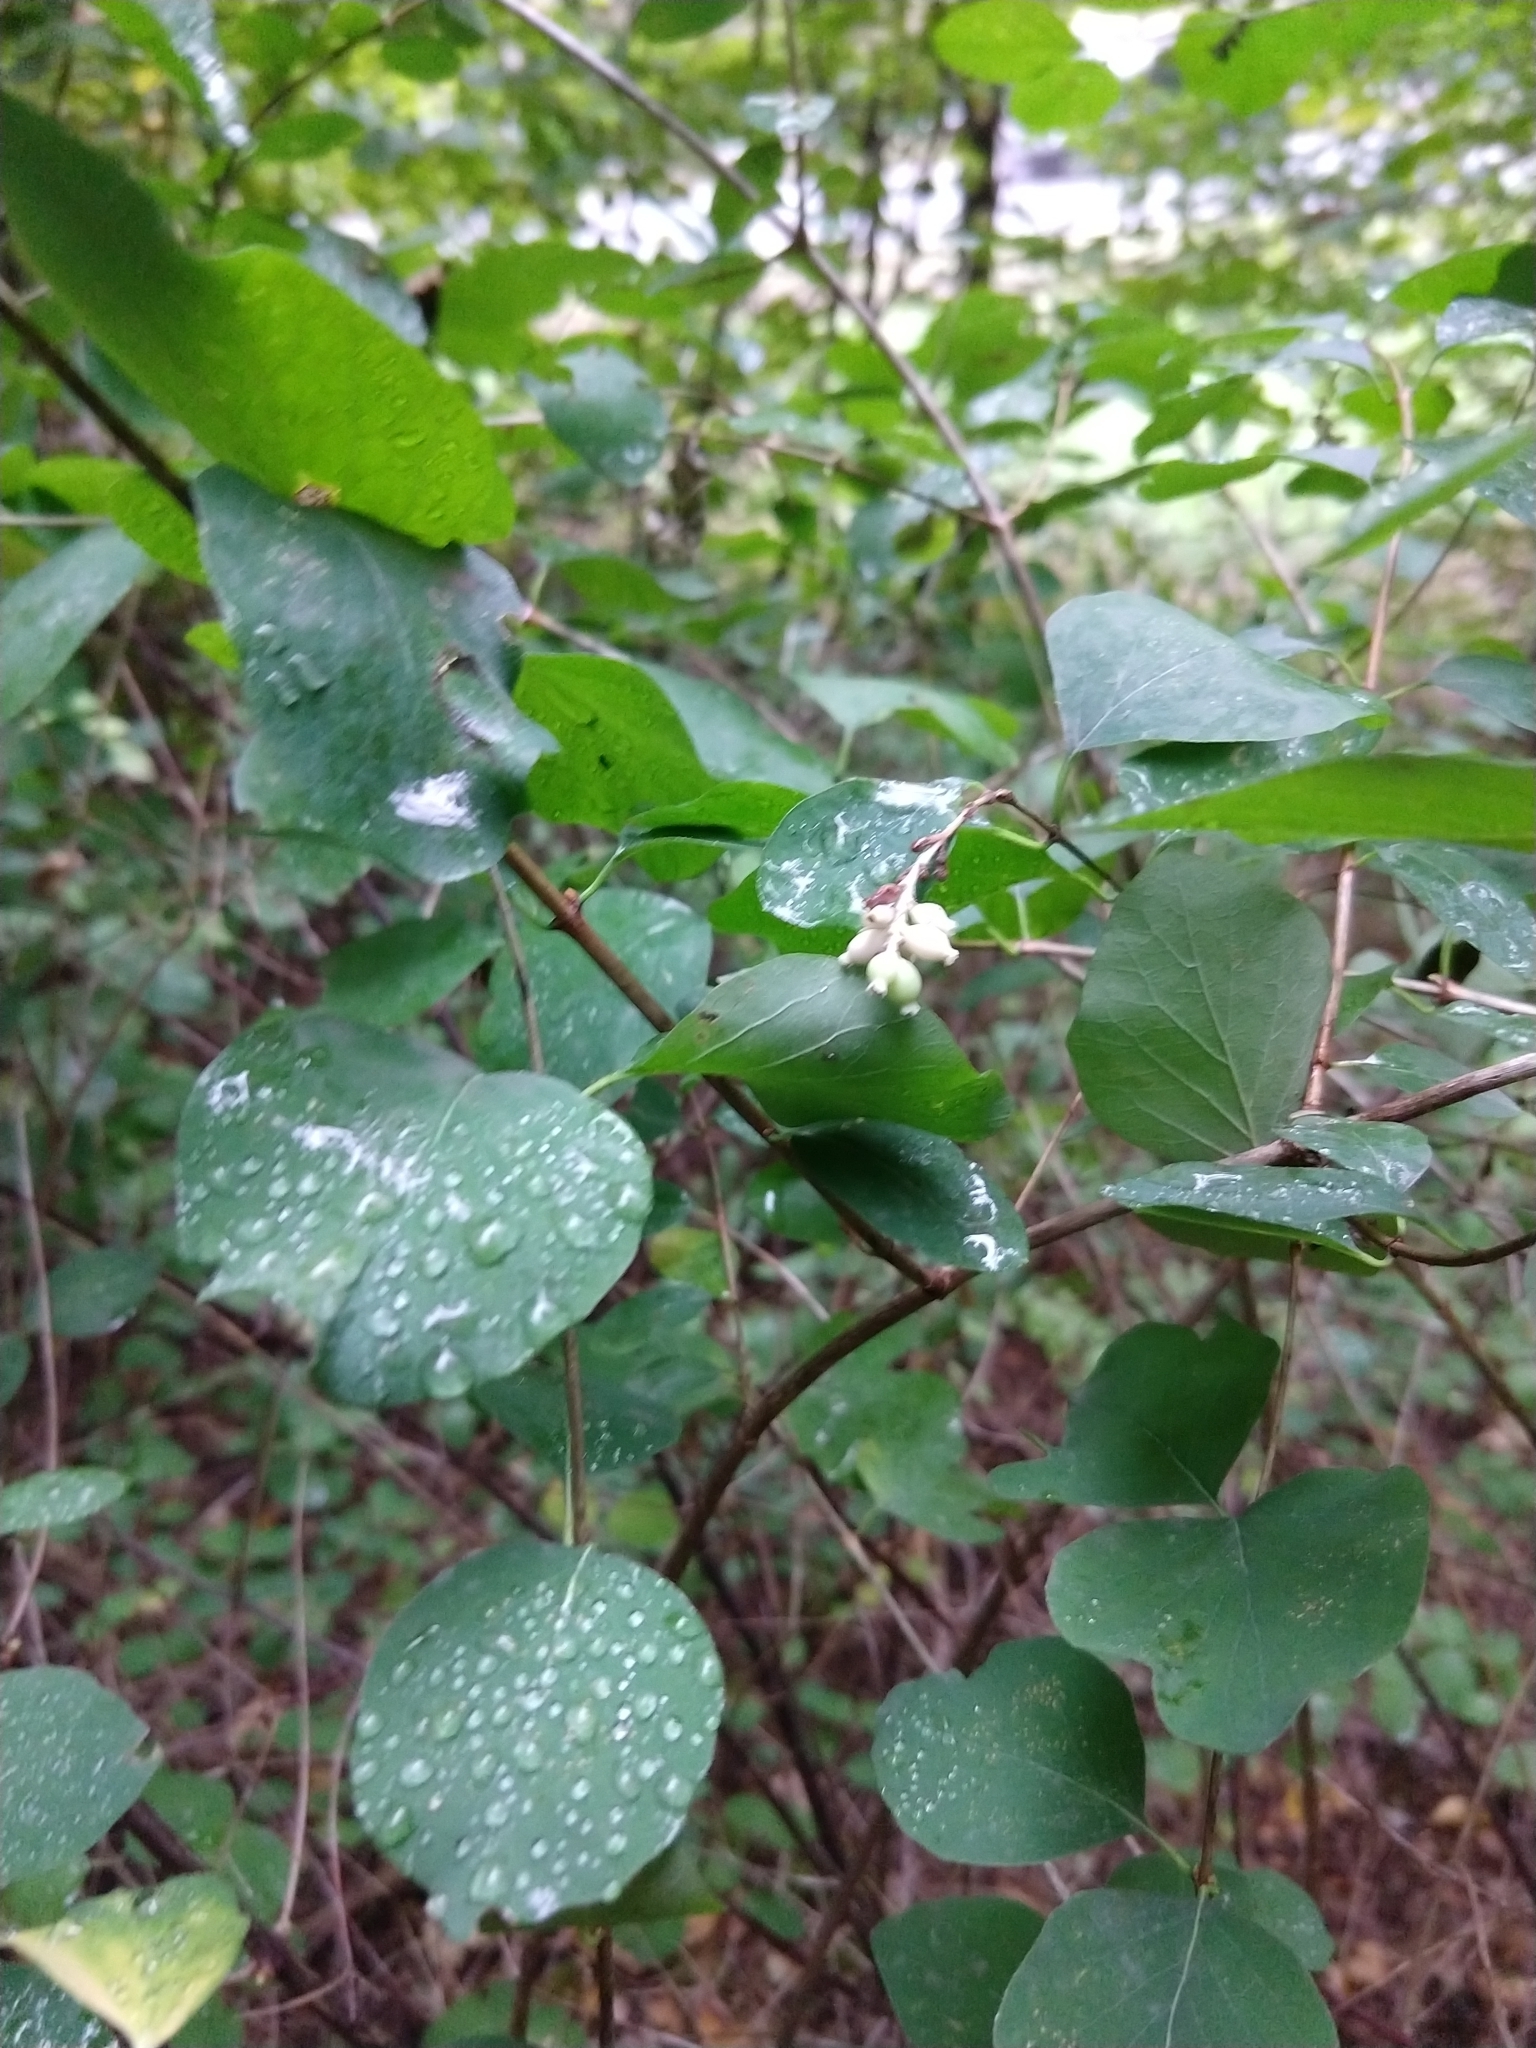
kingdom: Plantae
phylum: Tracheophyta
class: Magnoliopsida
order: Dipsacales
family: Caprifoliaceae
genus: Symphoricarpos
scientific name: Symphoricarpos albus
